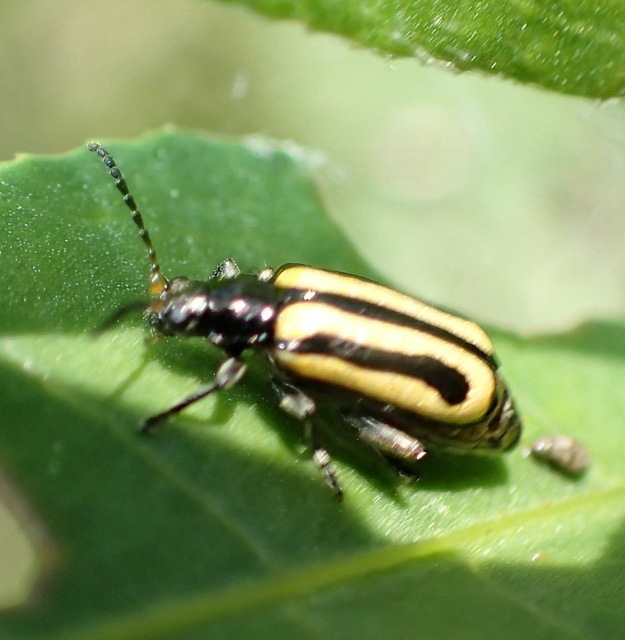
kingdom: Animalia
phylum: Arthropoda
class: Insecta
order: Coleoptera
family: Chrysomelidae
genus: Agasicles
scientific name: Agasicles hygrophila
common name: Alligatorweed flea beetle
